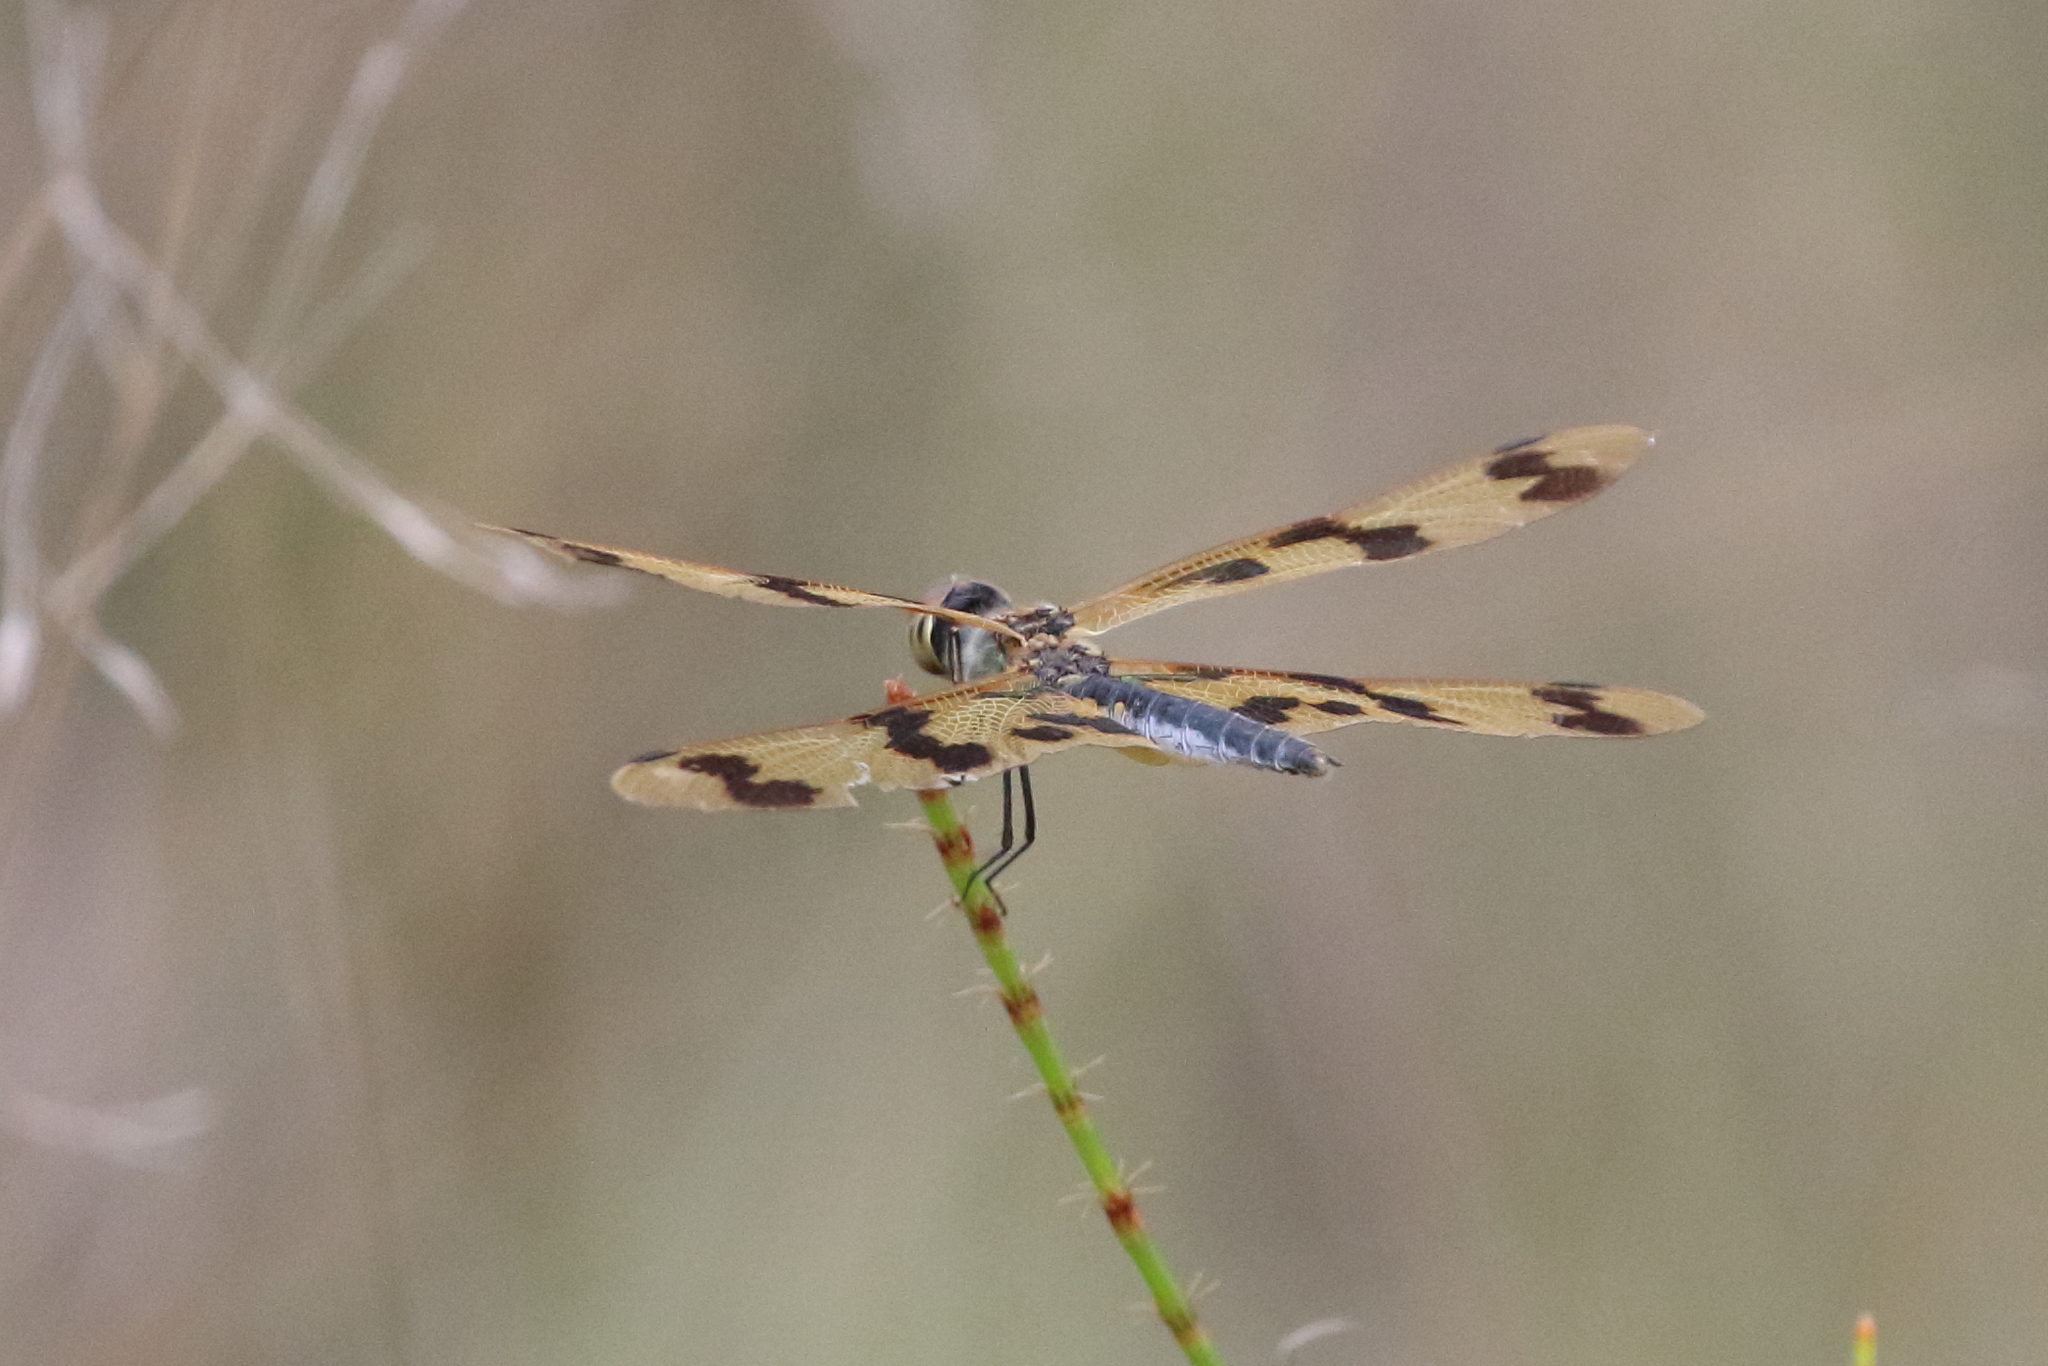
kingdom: Animalia
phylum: Arthropoda
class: Insecta
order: Odonata
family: Libellulidae
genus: Rhyothemis
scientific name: Rhyothemis graphiptera
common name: Graphic flutterer
